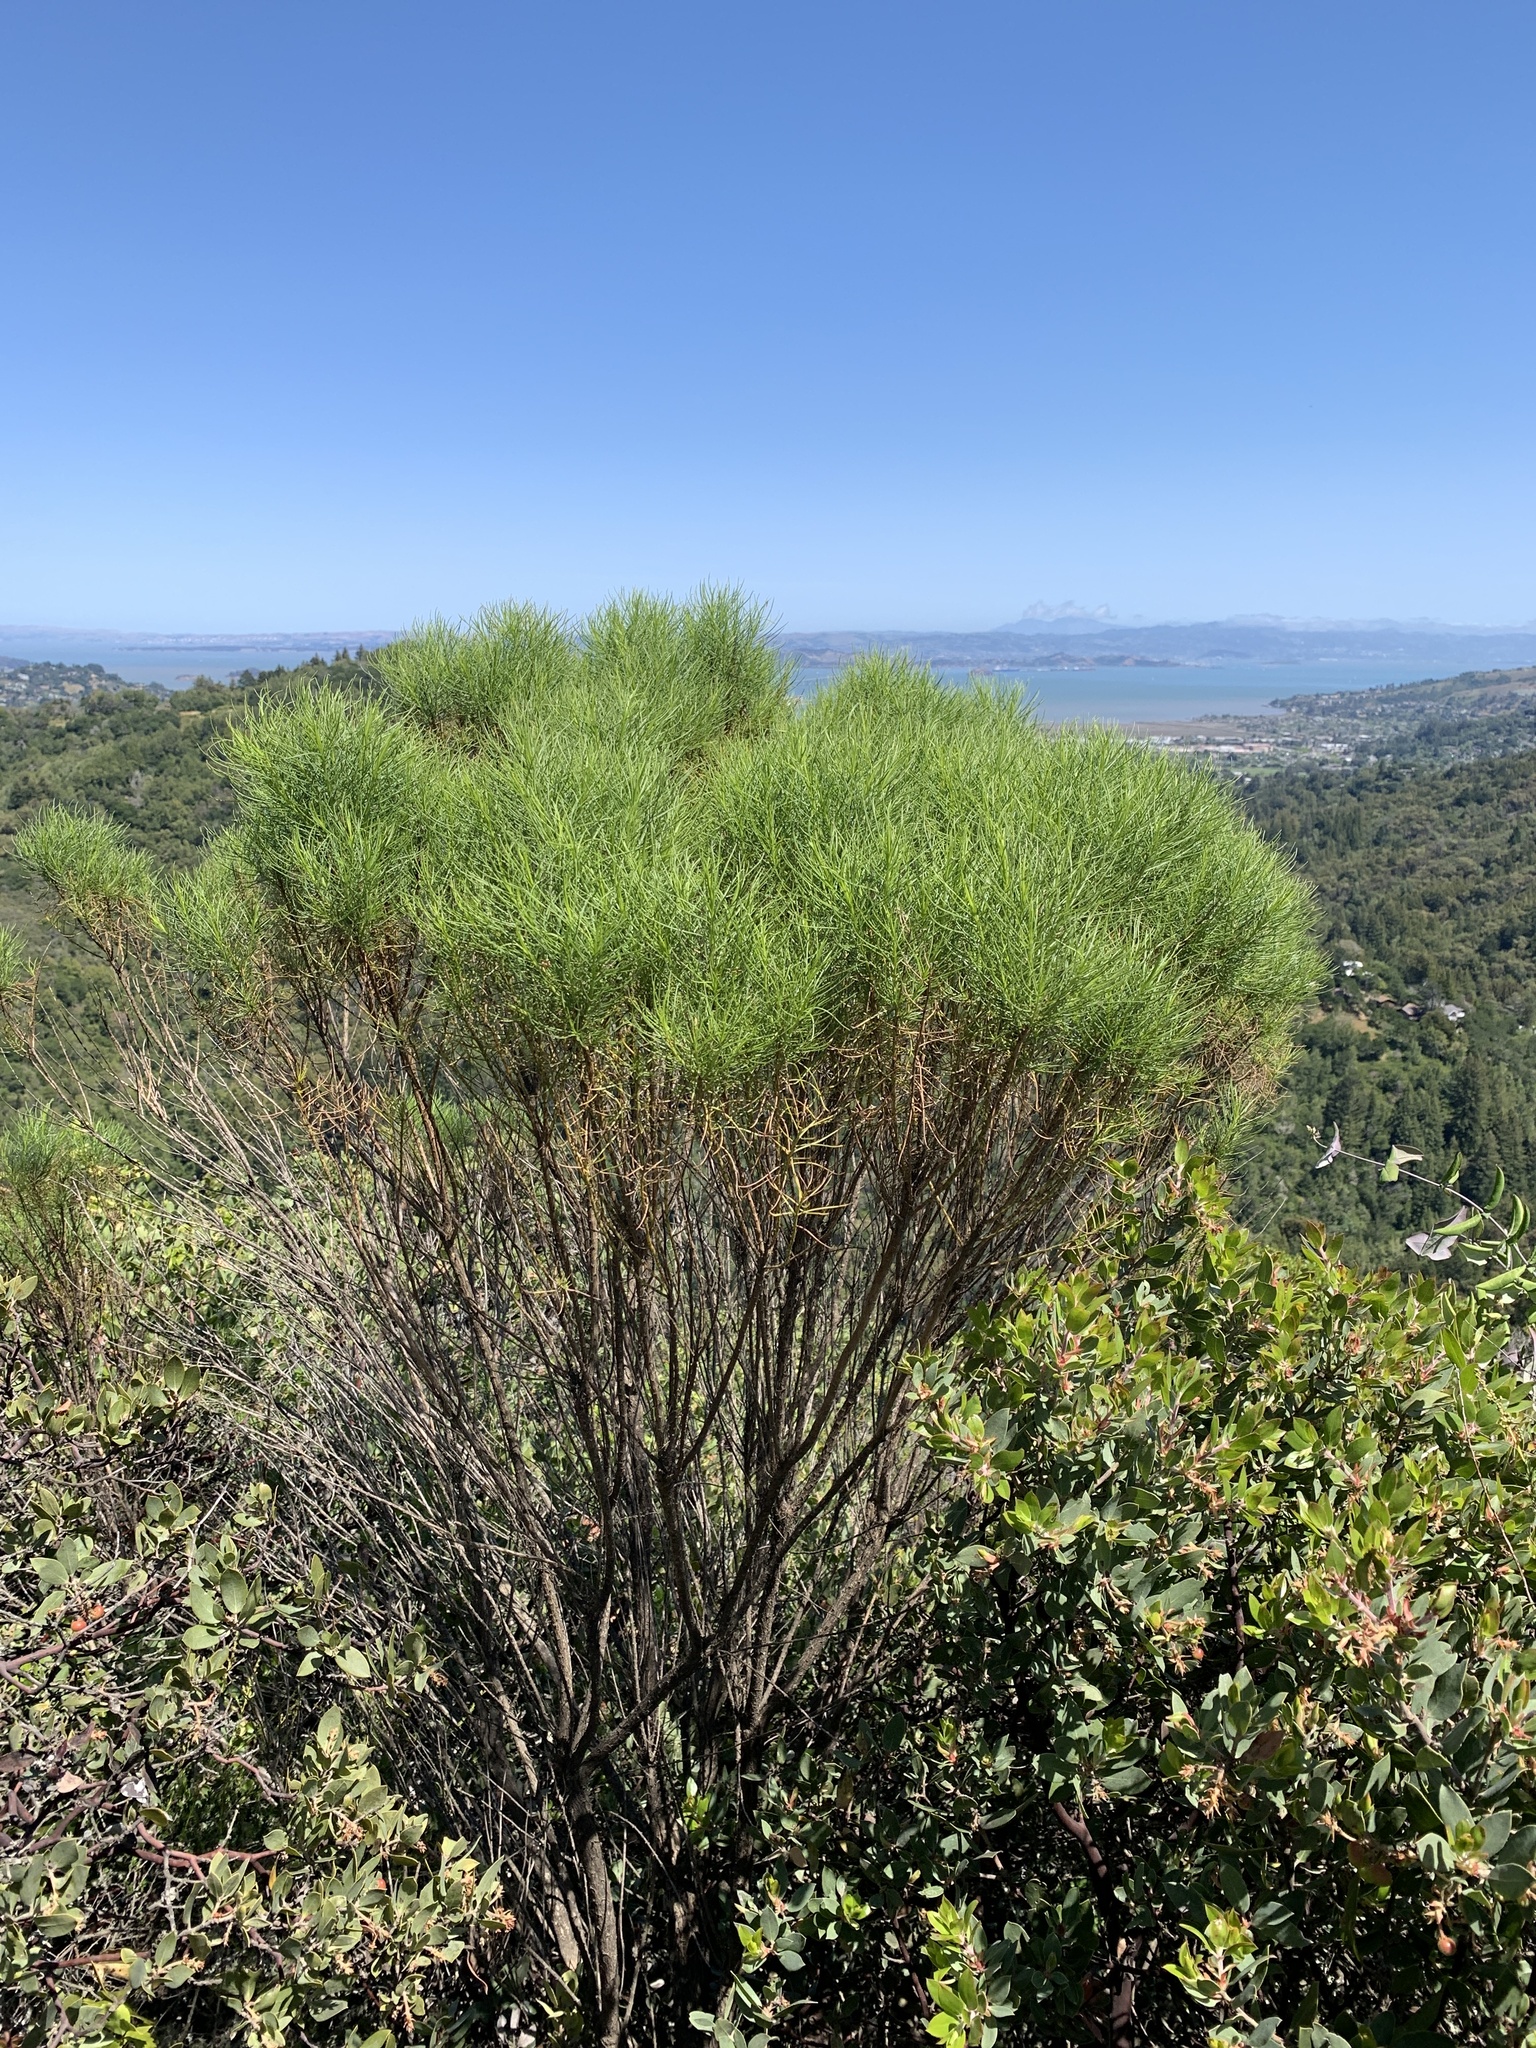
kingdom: Plantae
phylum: Tracheophyta
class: Magnoliopsida
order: Asterales
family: Asteraceae
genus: Ericameria
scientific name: Ericameria arborescens
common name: Goldenfleece
